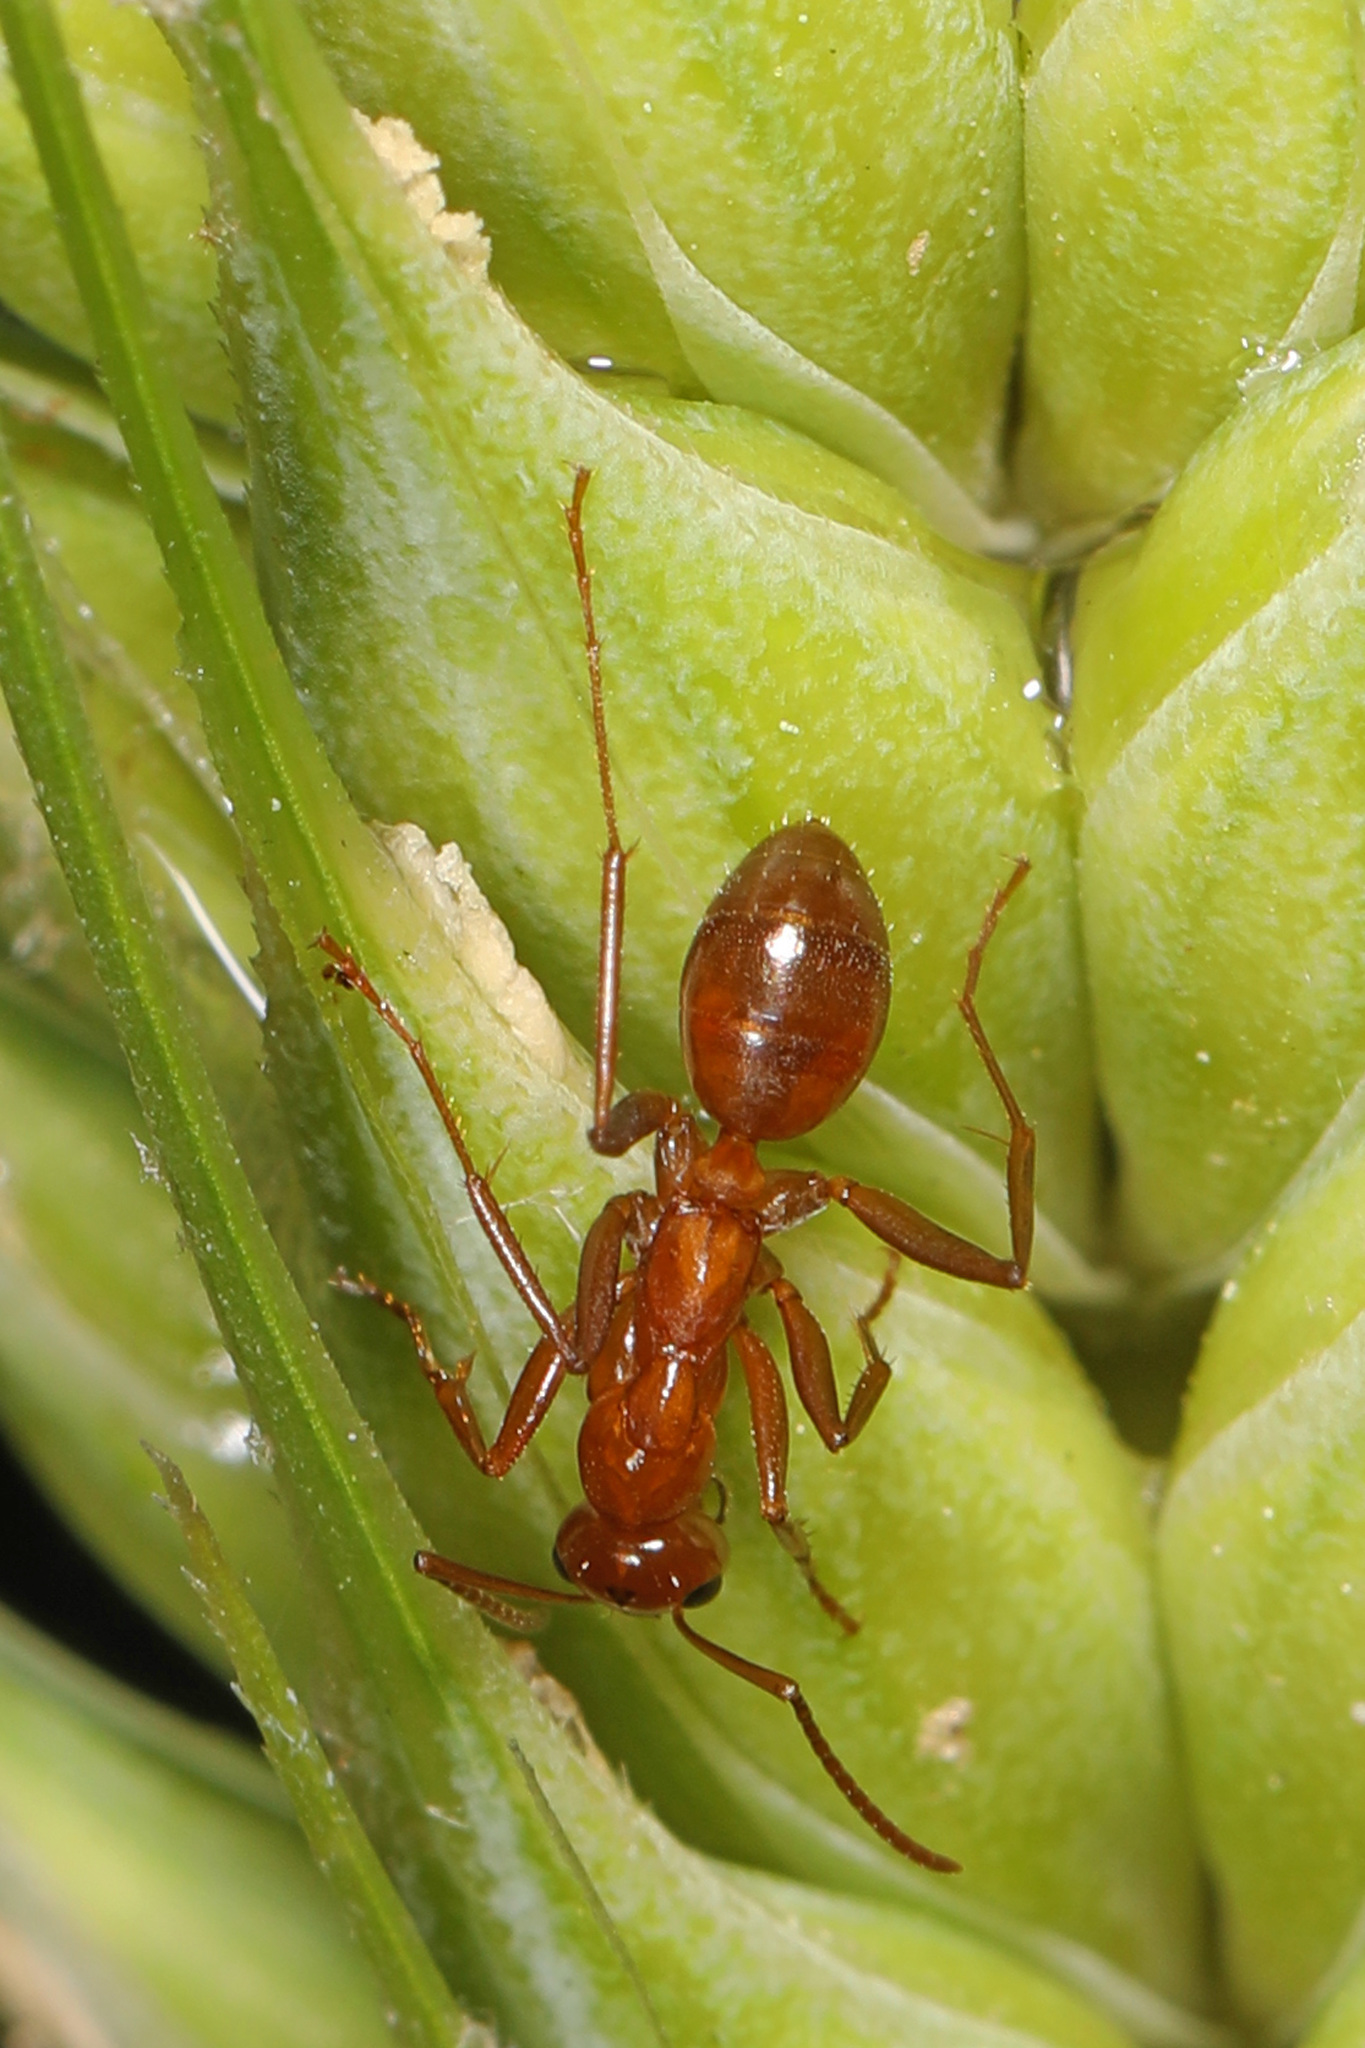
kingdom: Animalia
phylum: Arthropoda
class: Insecta
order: Hymenoptera
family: Formicidae
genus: Formica
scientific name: Formica pallidefulva
